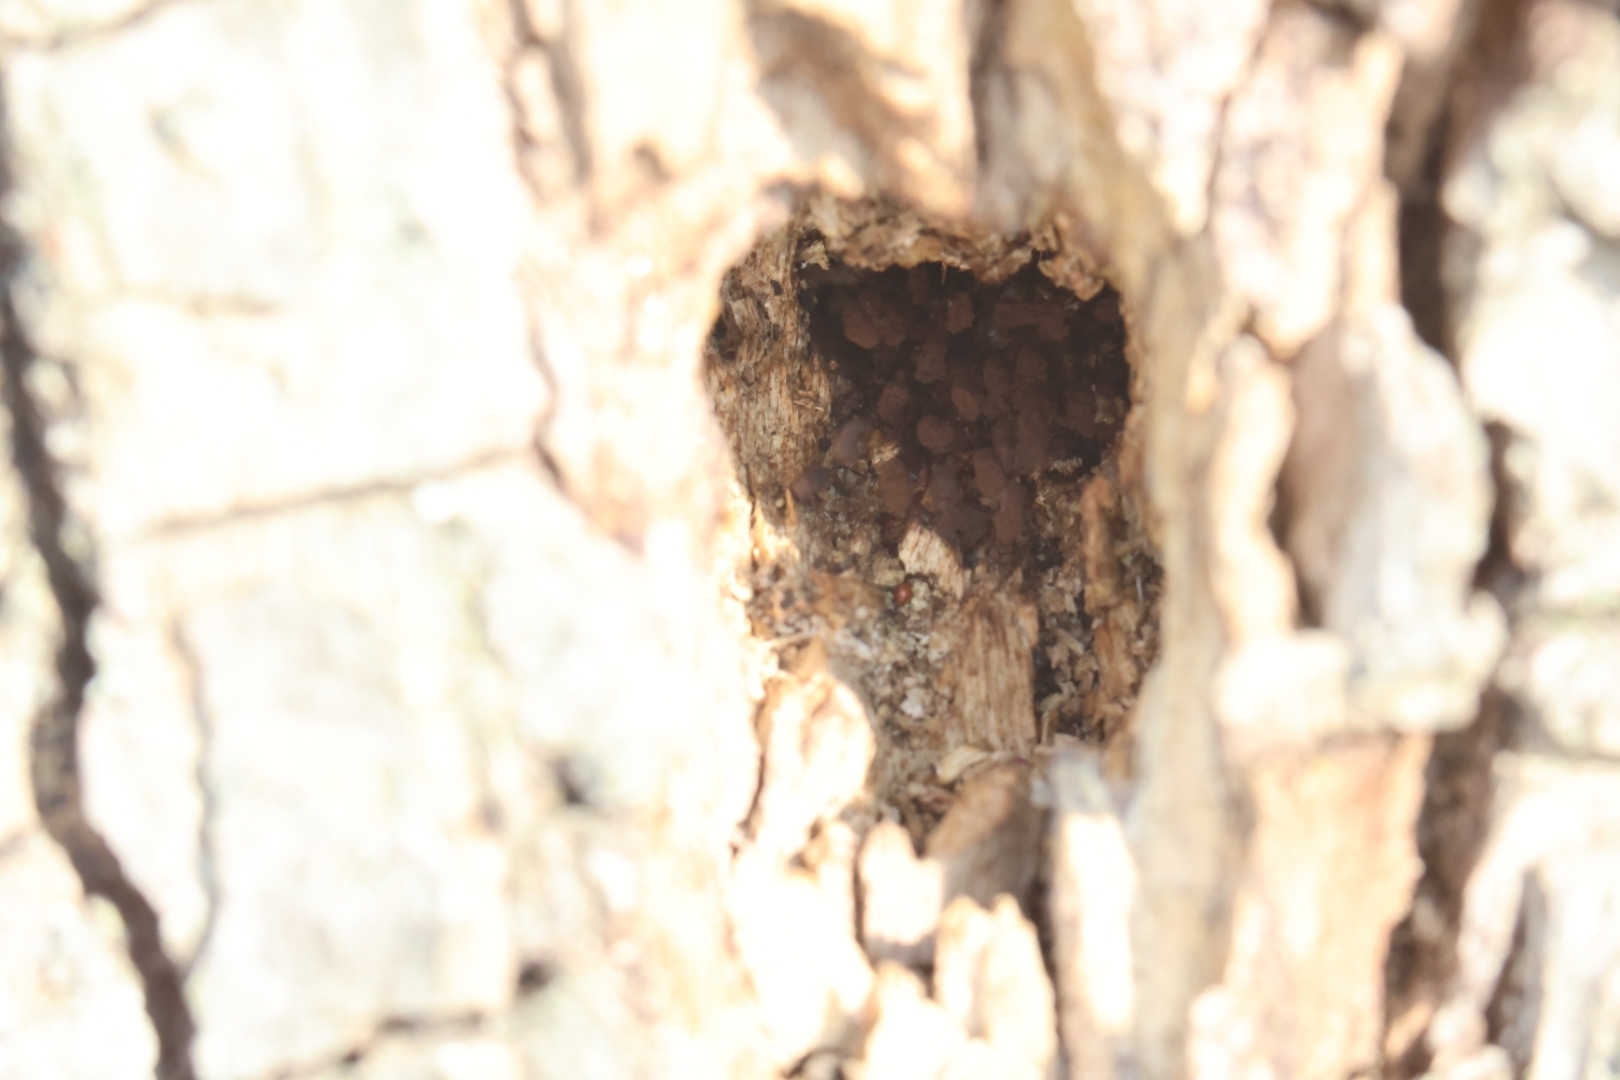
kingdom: Protozoa
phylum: Mycetozoa
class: Myxomycetes
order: Stemonitidales
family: Stemonitidaceae
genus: Comatricha
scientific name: Comatricha alta
